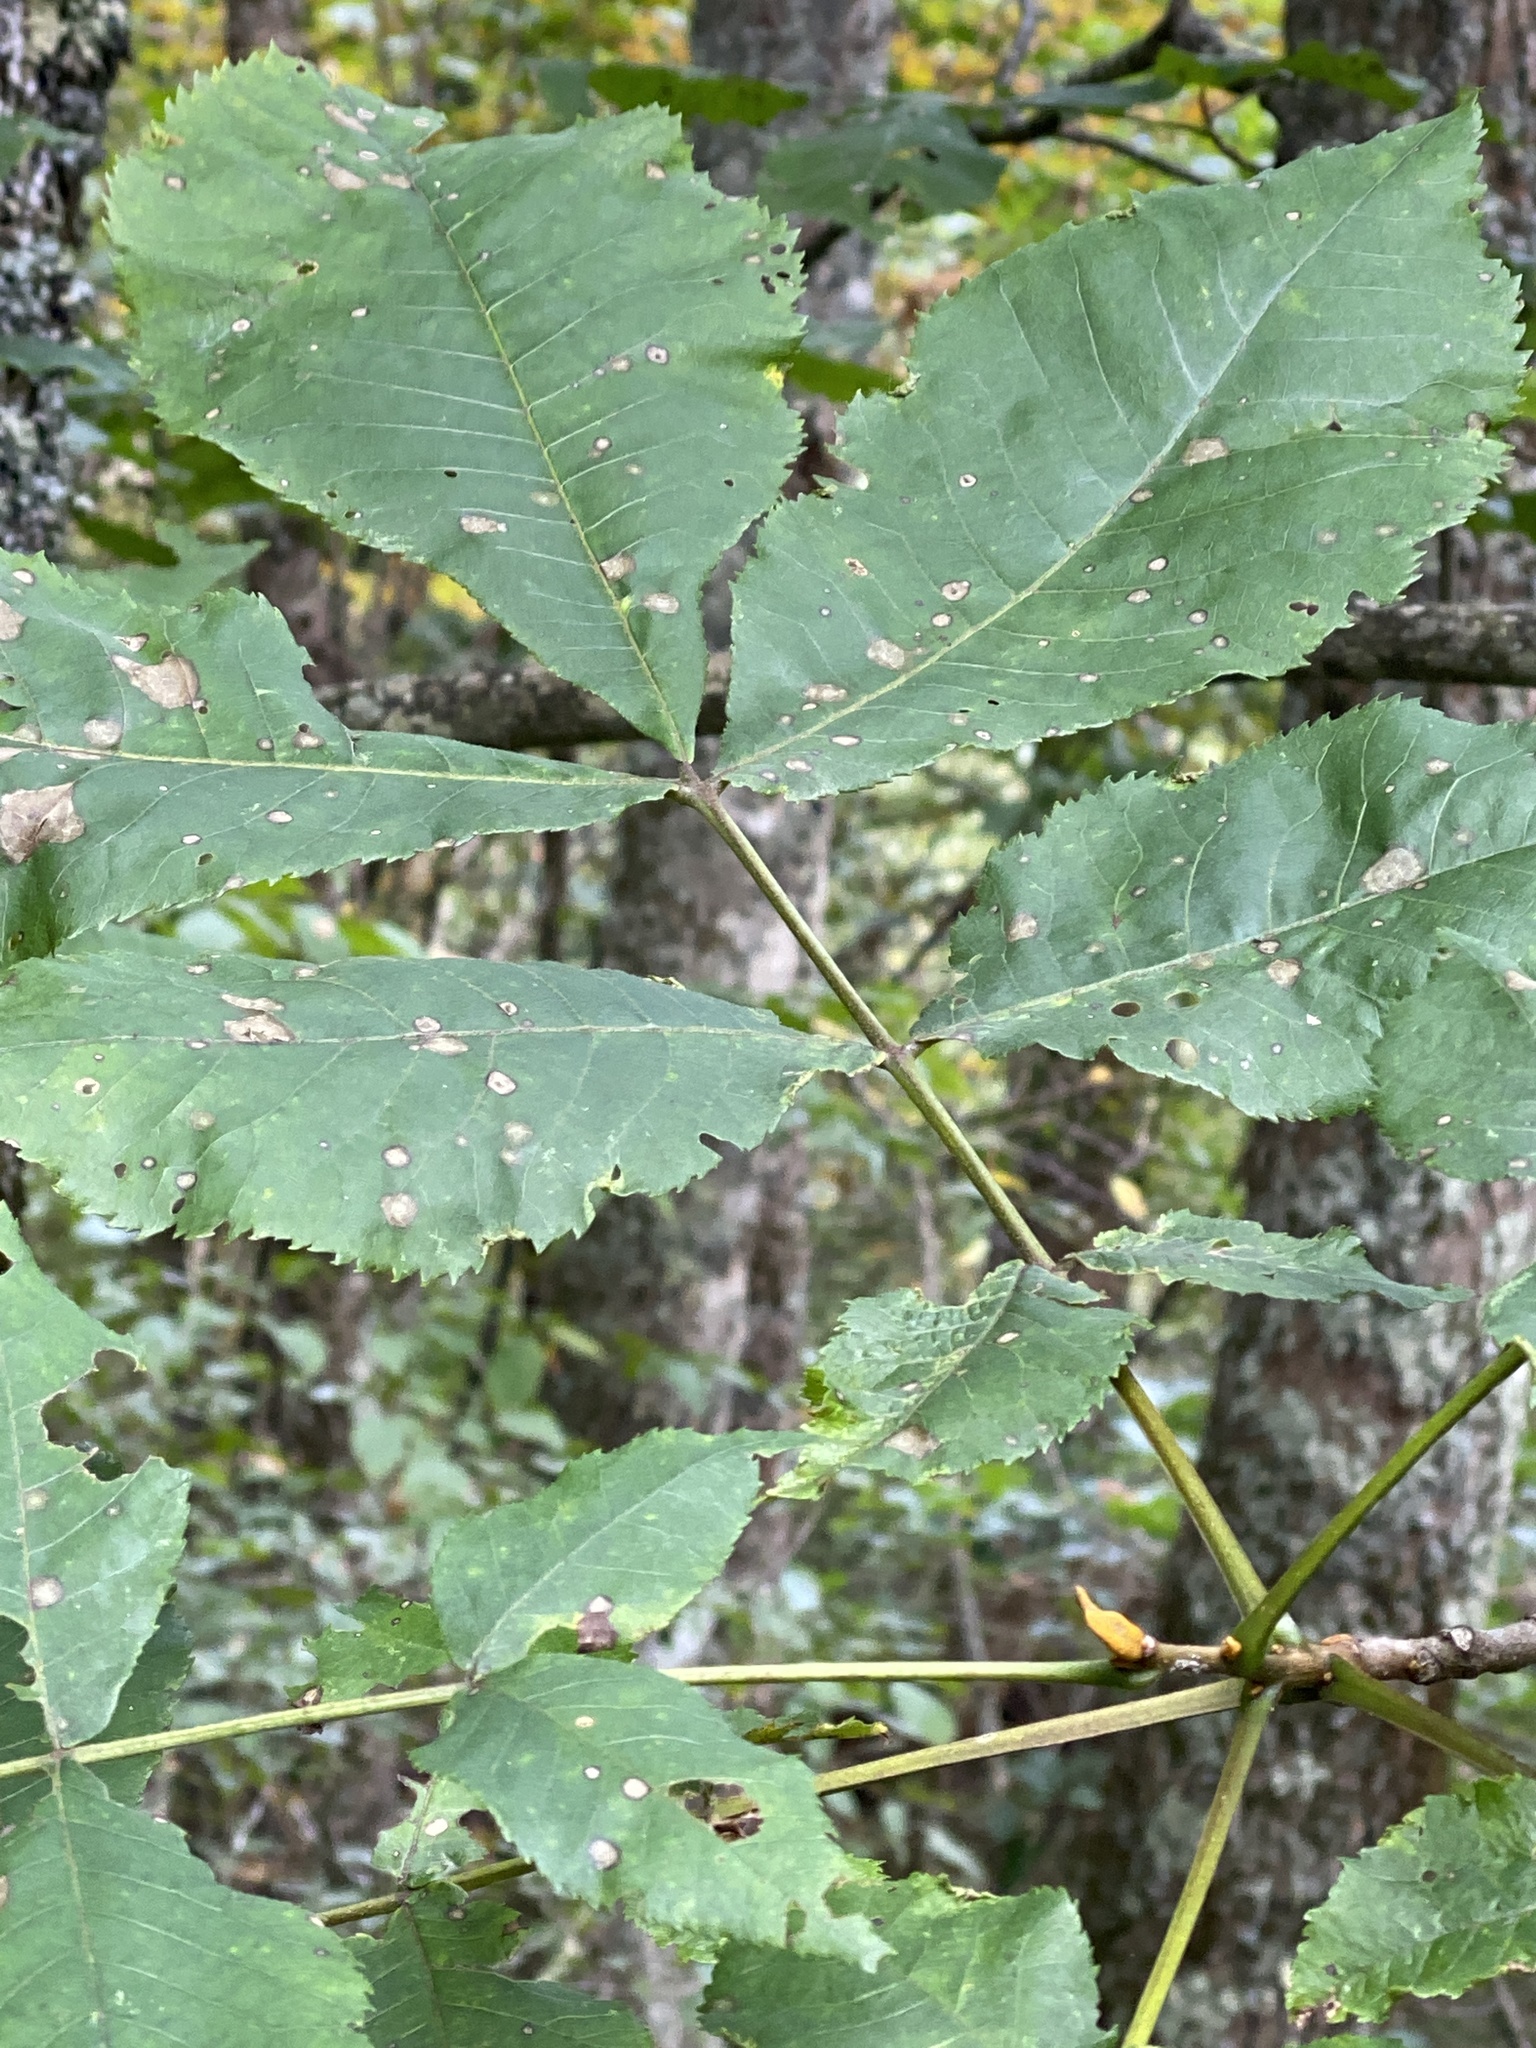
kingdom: Plantae
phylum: Tracheophyta
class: Magnoliopsida
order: Fagales
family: Juglandaceae
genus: Carya
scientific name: Carya cordiformis
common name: Bitternut hickory
